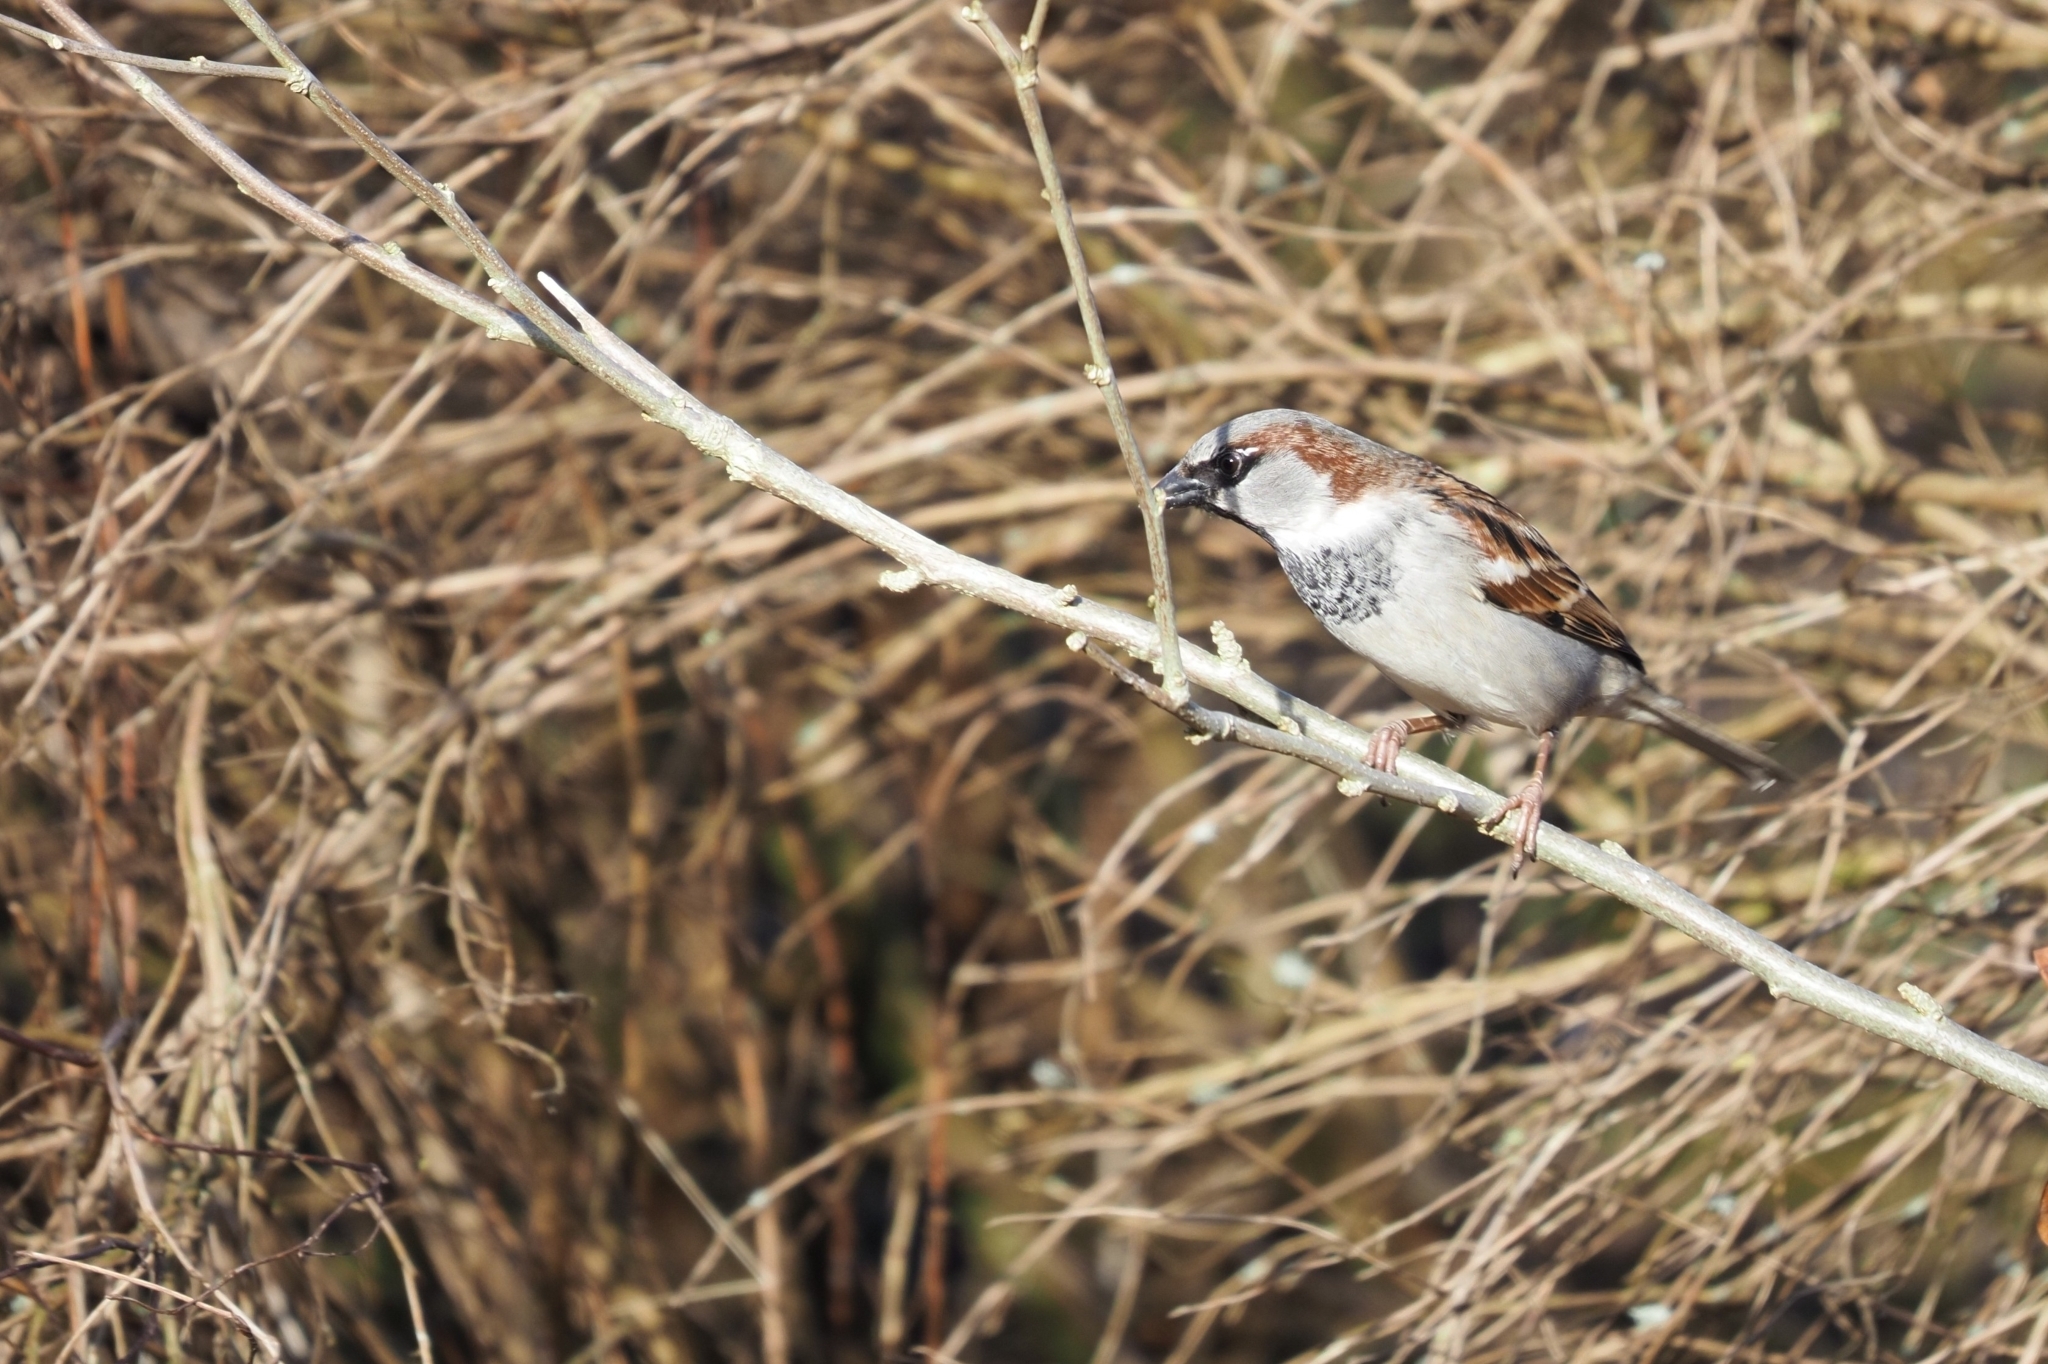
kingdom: Animalia
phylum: Chordata
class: Aves
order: Passeriformes
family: Passeridae
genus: Passer
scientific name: Passer domesticus
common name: House sparrow
